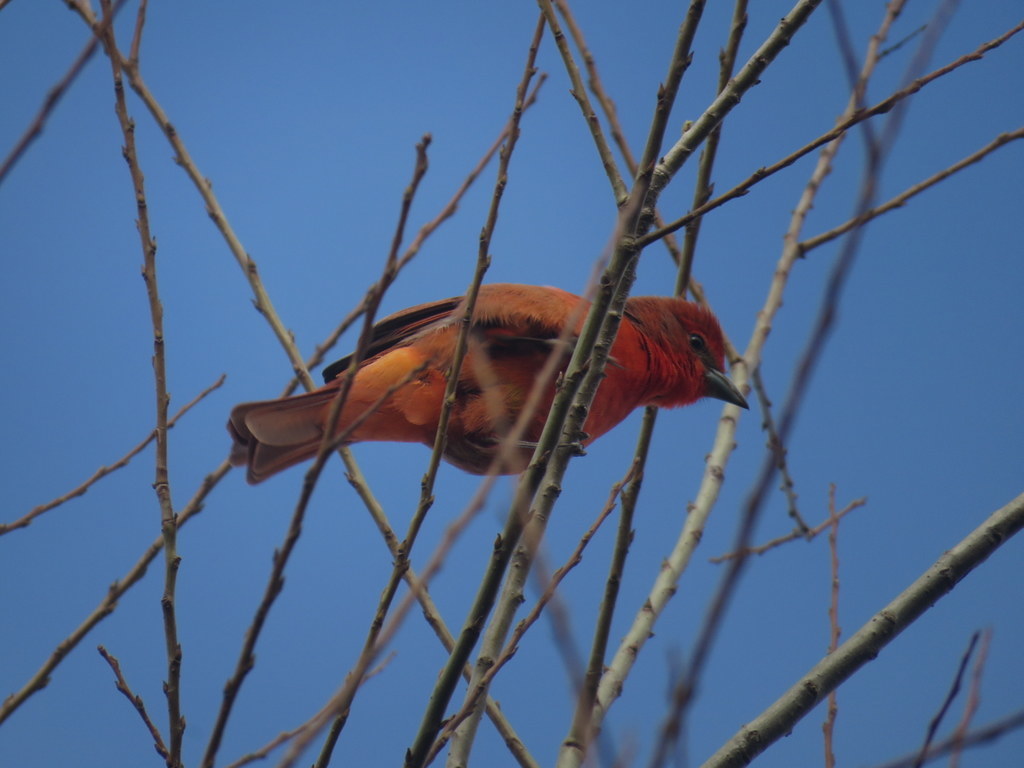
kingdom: Animalia
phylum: Chordata
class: Aves
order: Passeriformes
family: Cardinalidae
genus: Piranga
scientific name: Piranga flava
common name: Red tanager
